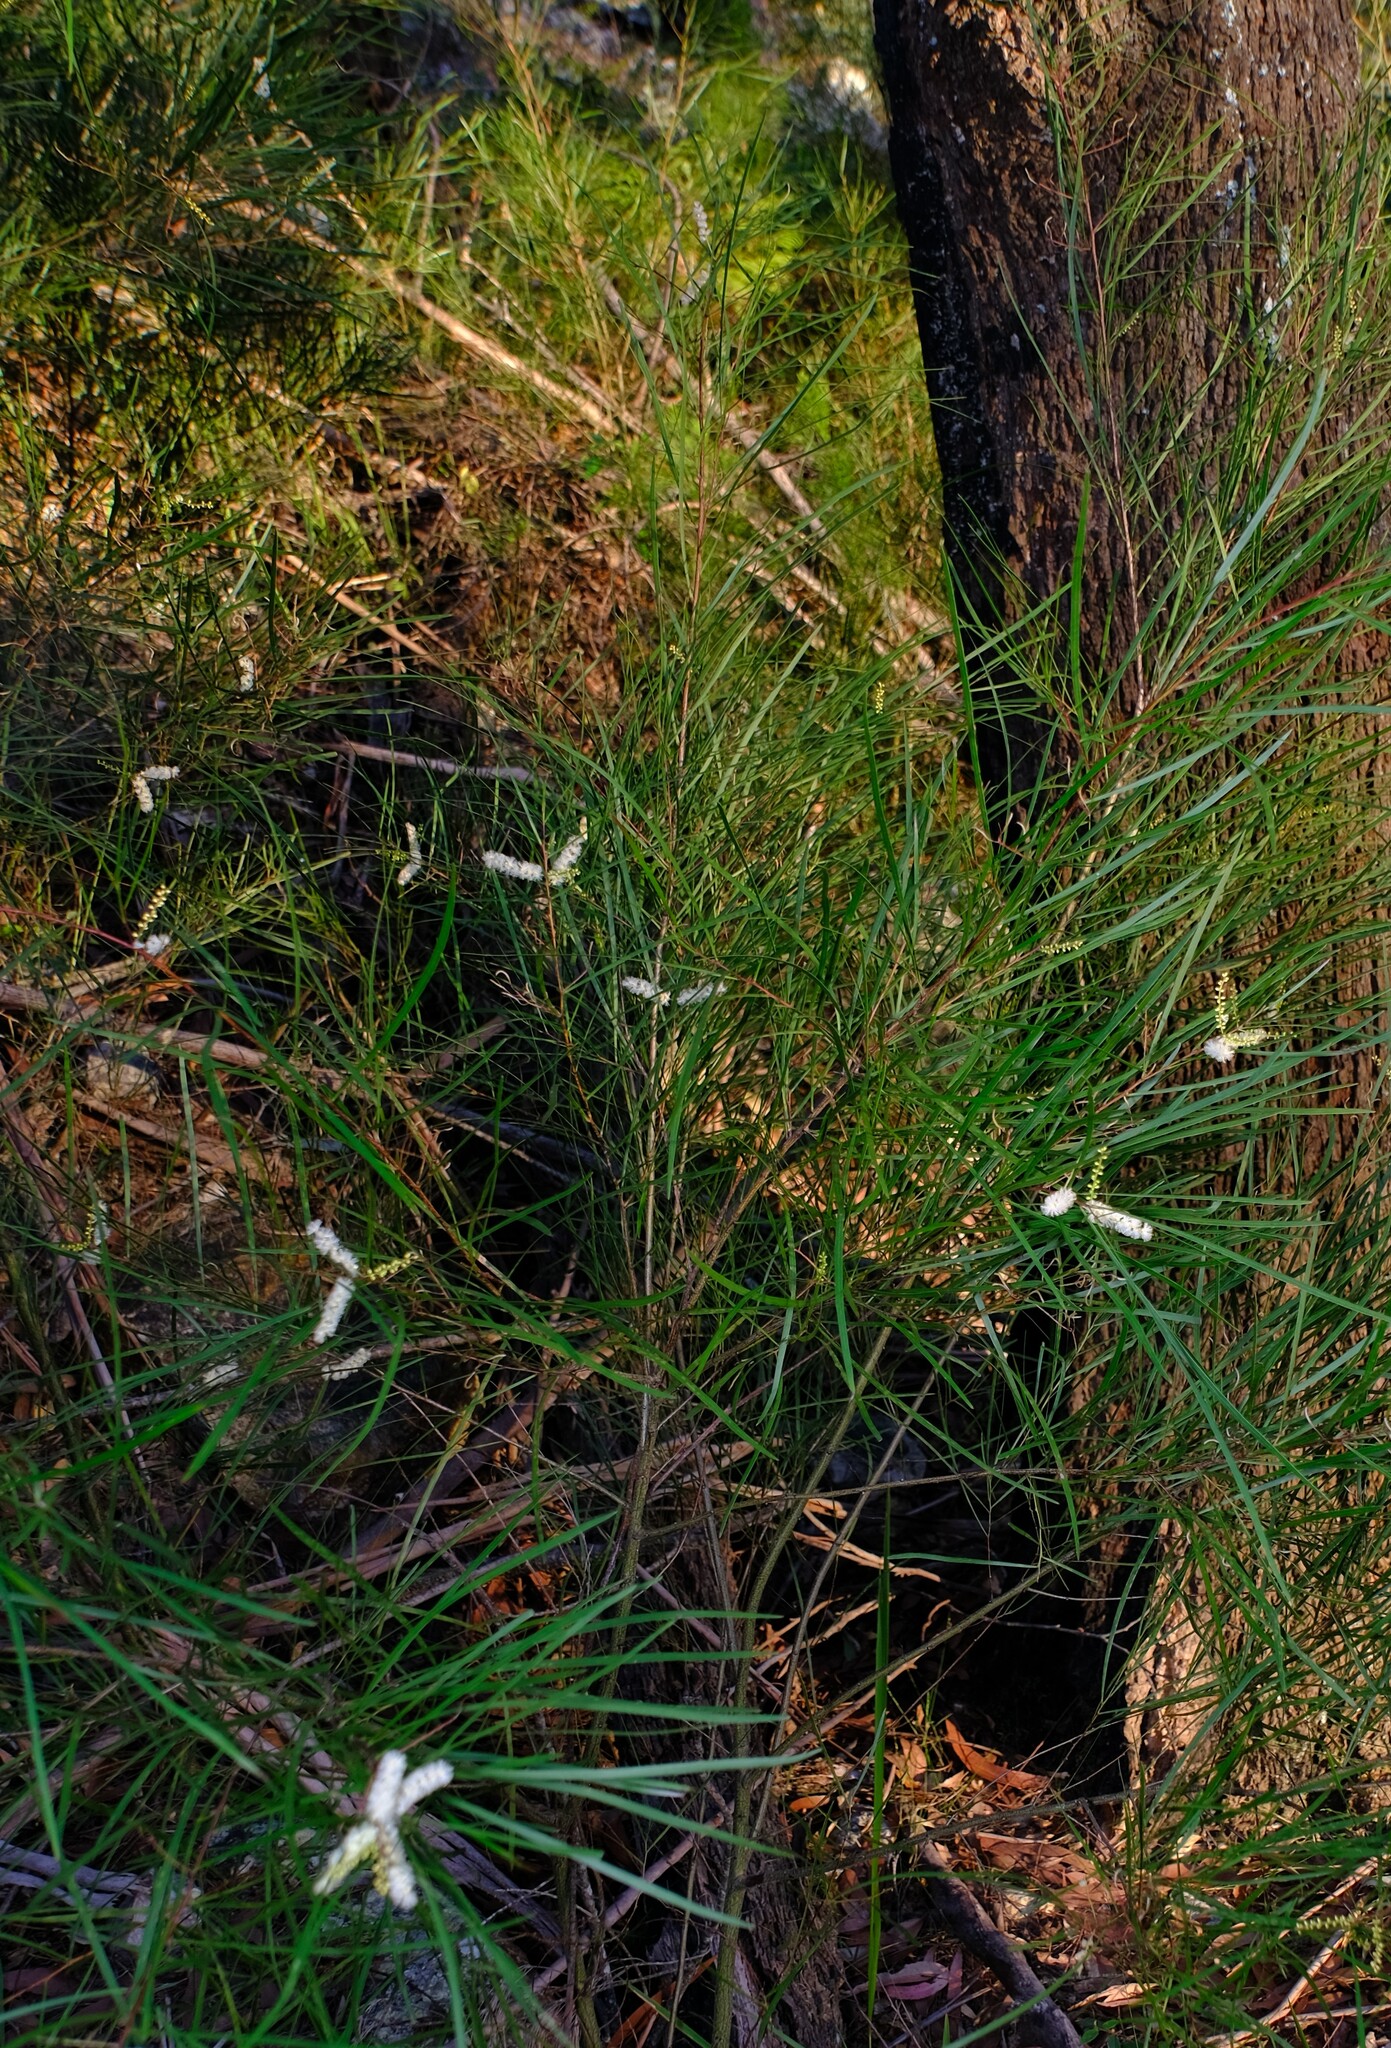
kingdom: Plantae
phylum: Tracheophyta
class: Magnoliopsida
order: Fabales
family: Fabaceae
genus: Acacia
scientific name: Acacia longissima
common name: Longleaf wattle
